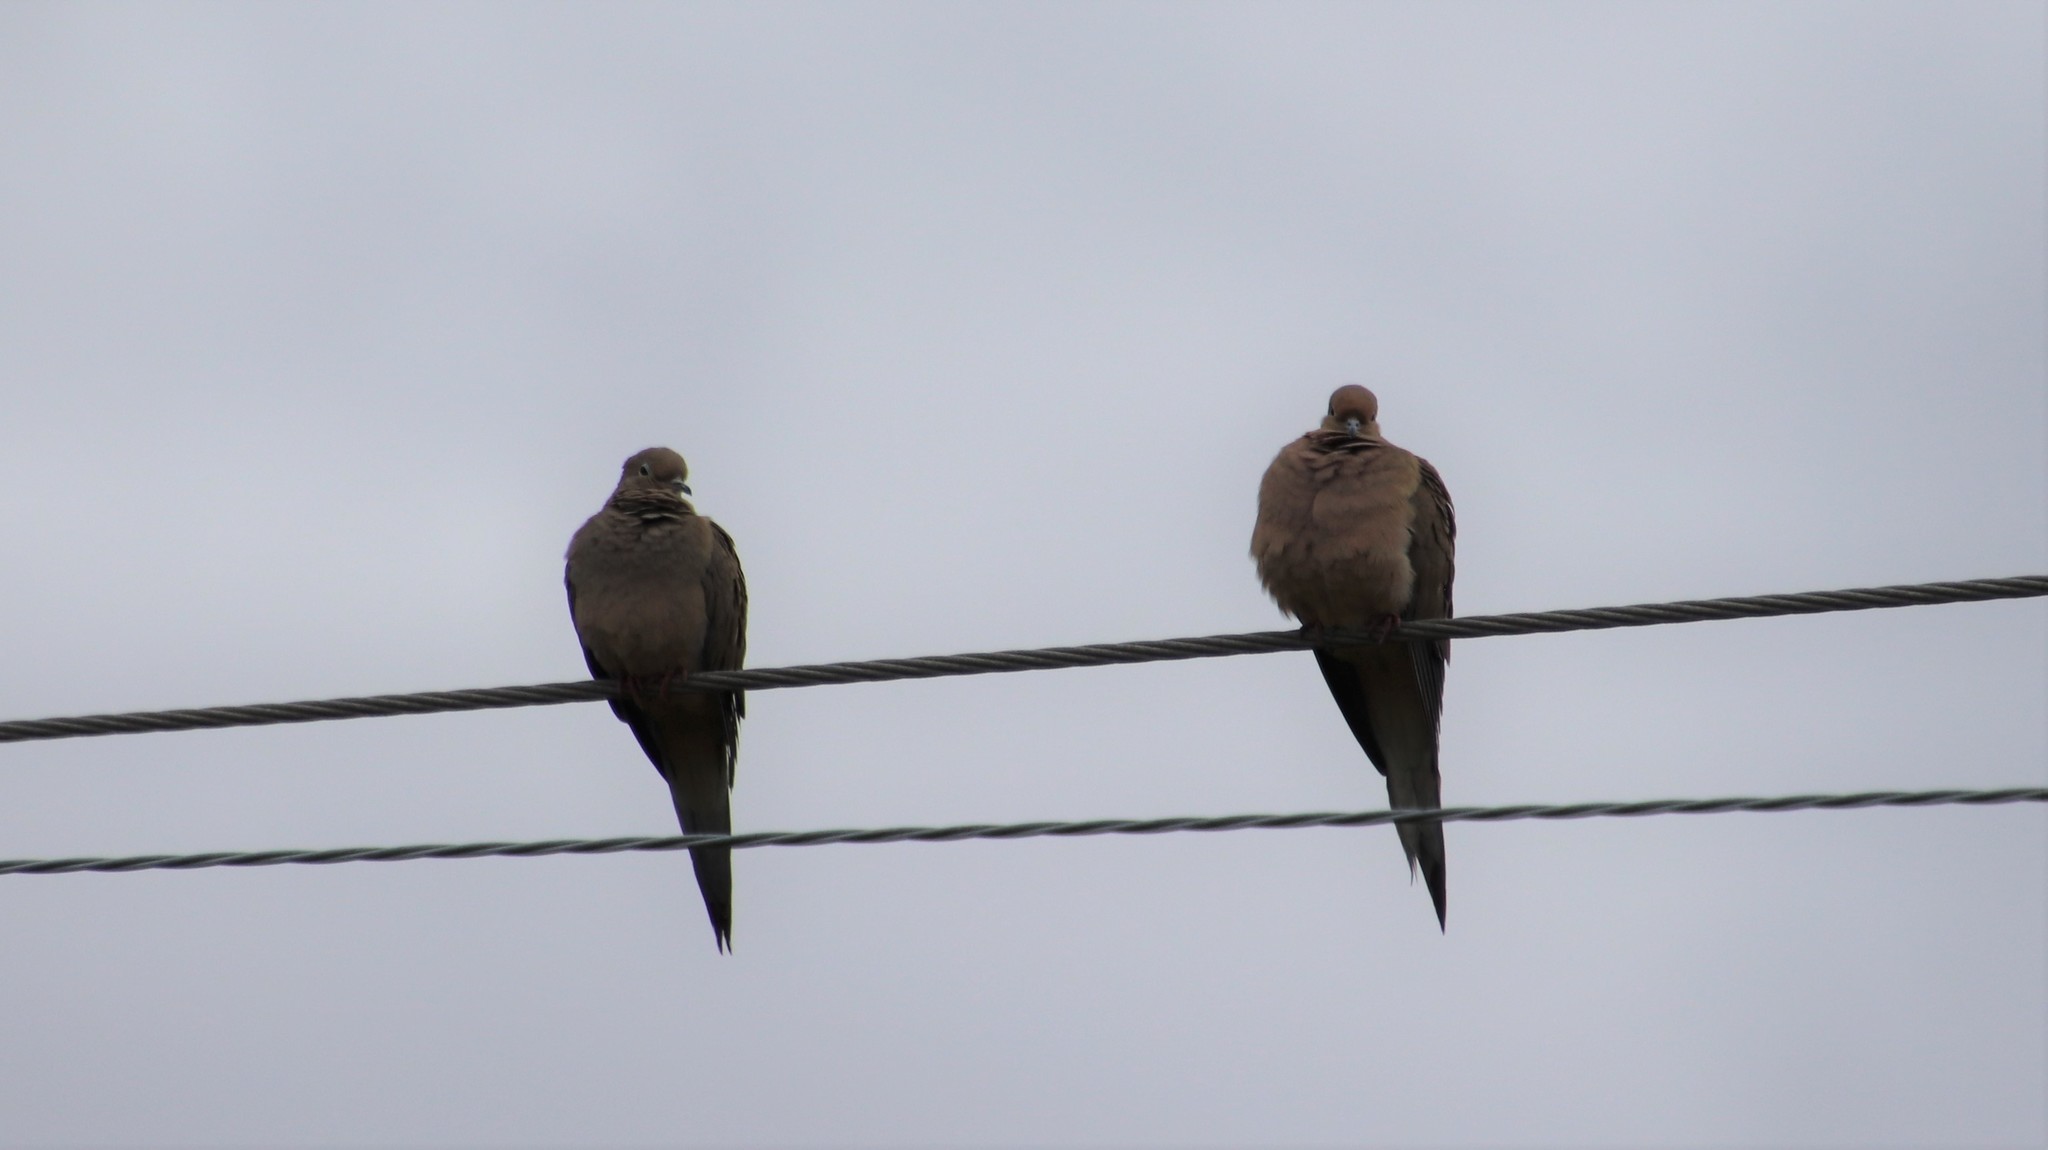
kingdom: Animalia
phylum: Chordata
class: Aves
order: Columbiformes
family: Columbidae
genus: Zenaida
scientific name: Zenaida macroura
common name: Mourning dove
